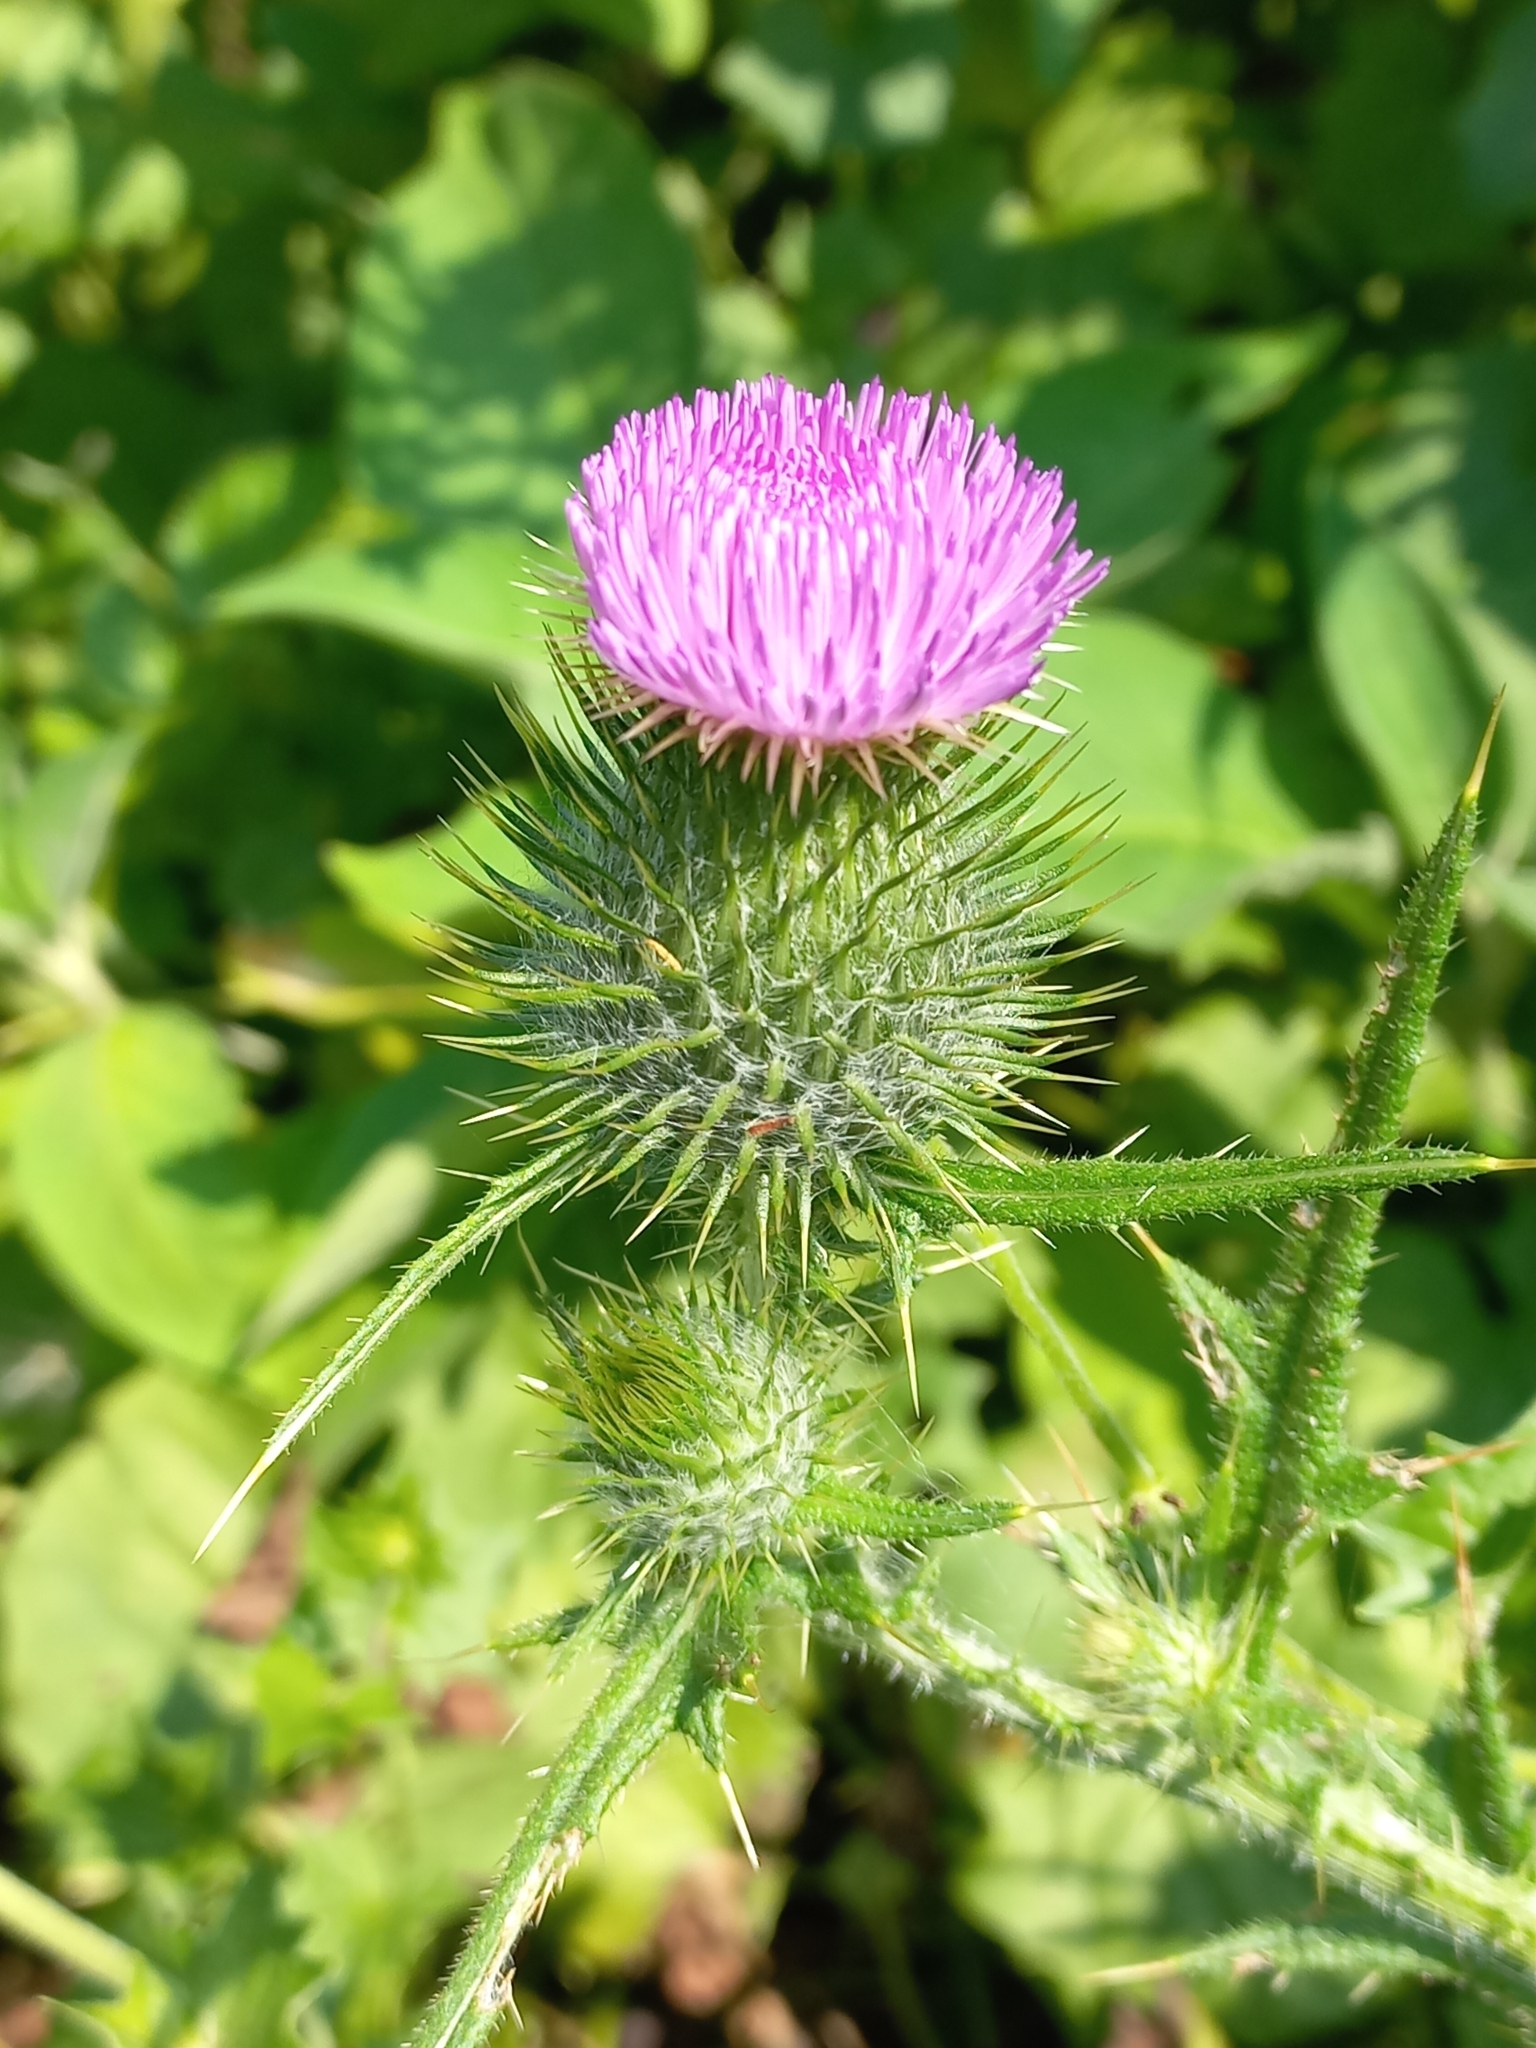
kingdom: Plantae
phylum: Tracheophyta
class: Magnoliopsida
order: Asterales
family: Asteraceae
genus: Cirsium
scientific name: Cirsium vulgare
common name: Bull thistle
